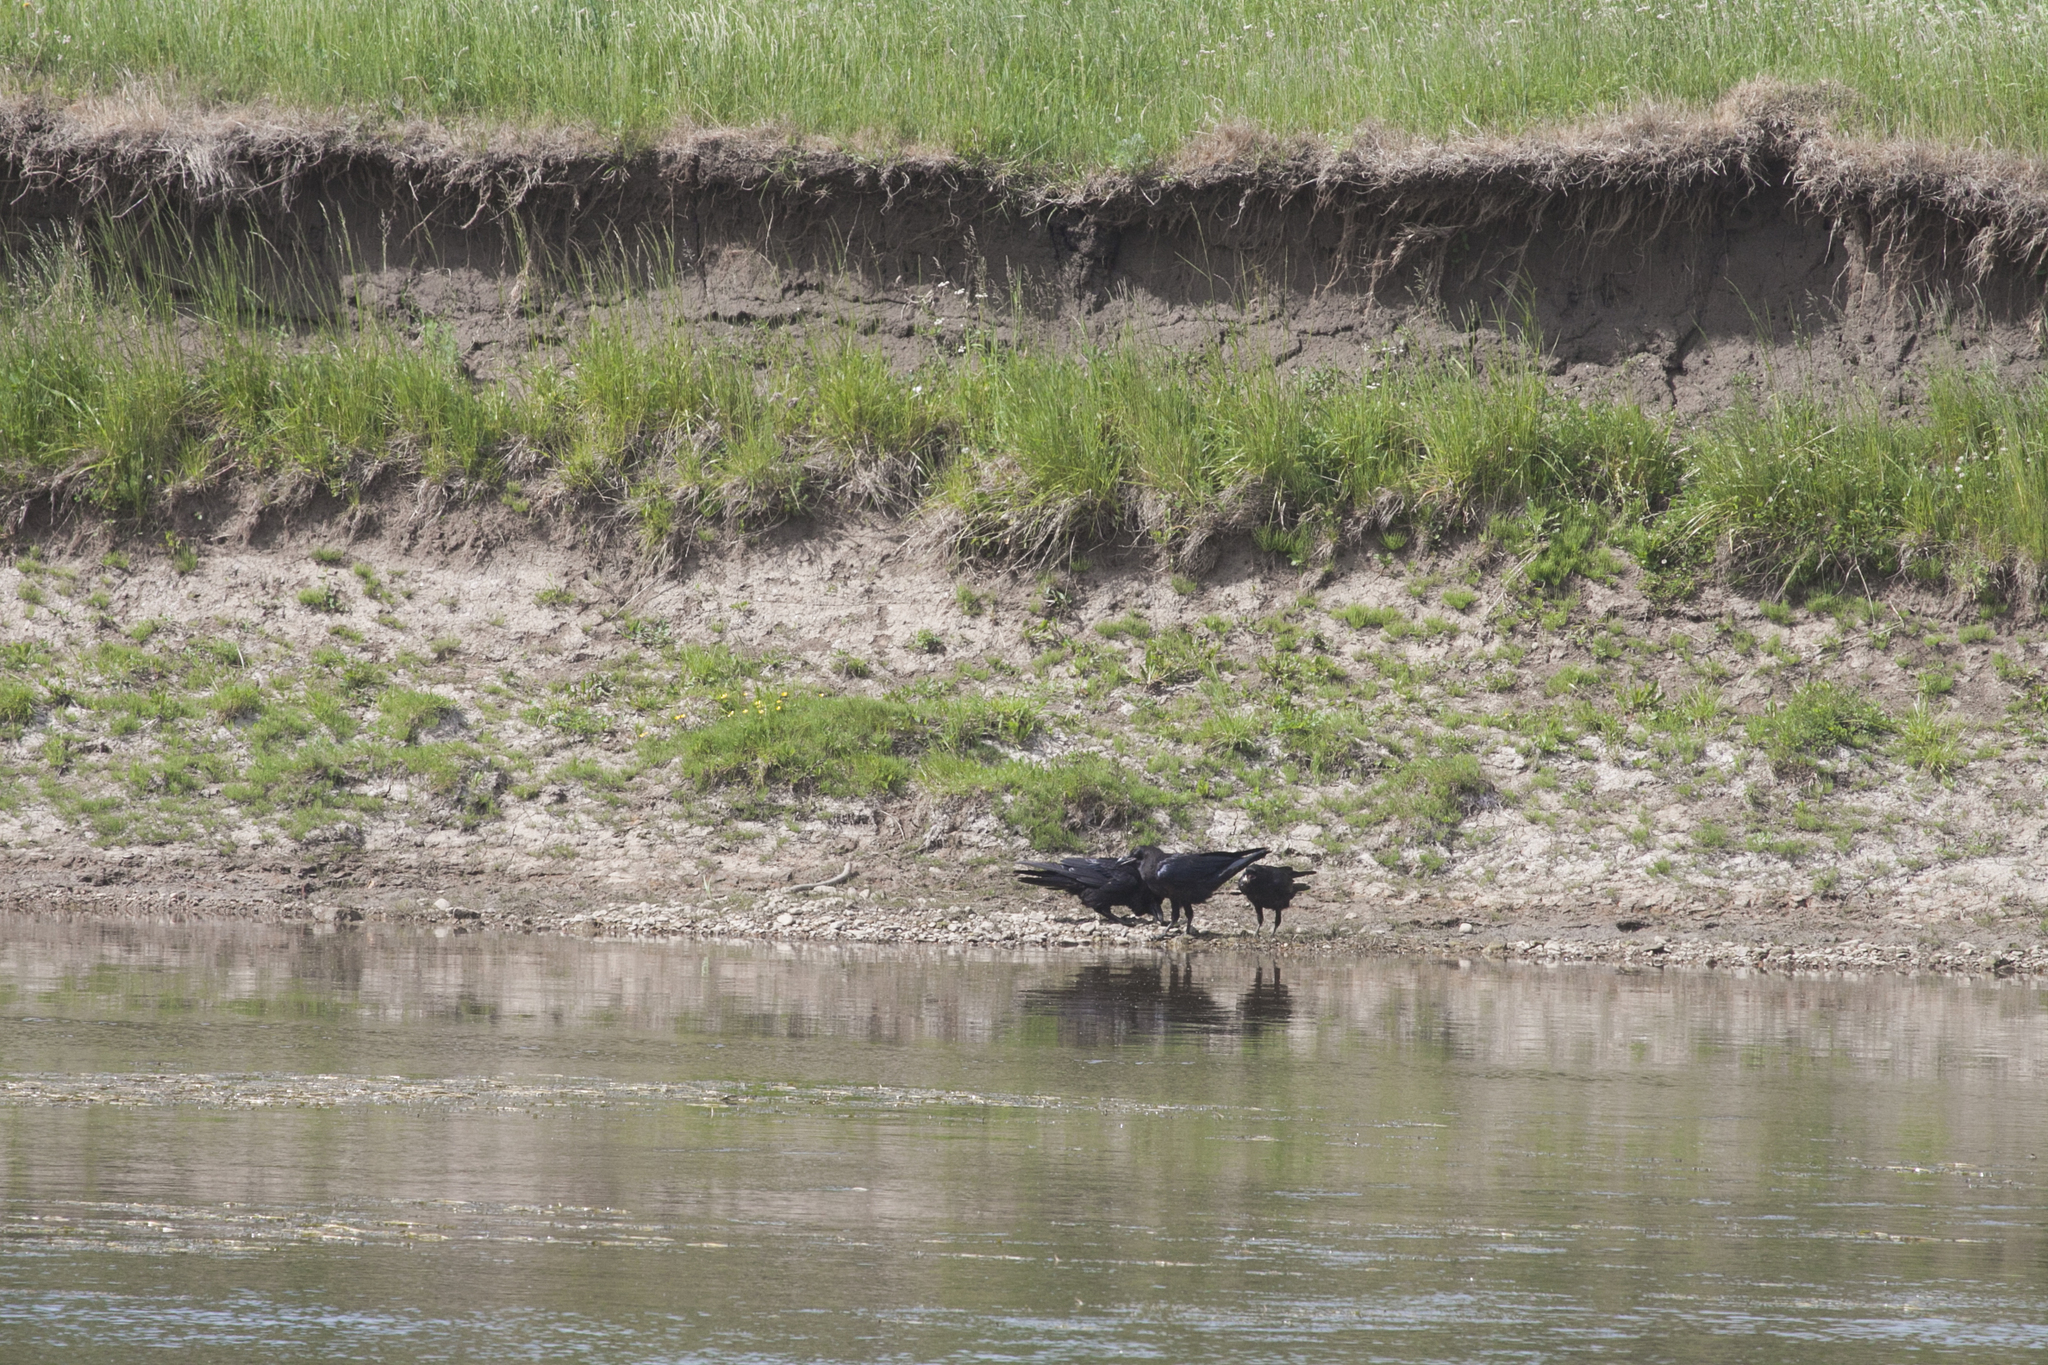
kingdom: Animalia
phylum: Chordata
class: Aves
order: Passeriformes
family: Corvidae
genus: Corvus
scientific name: Corvus corax
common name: Common raven
